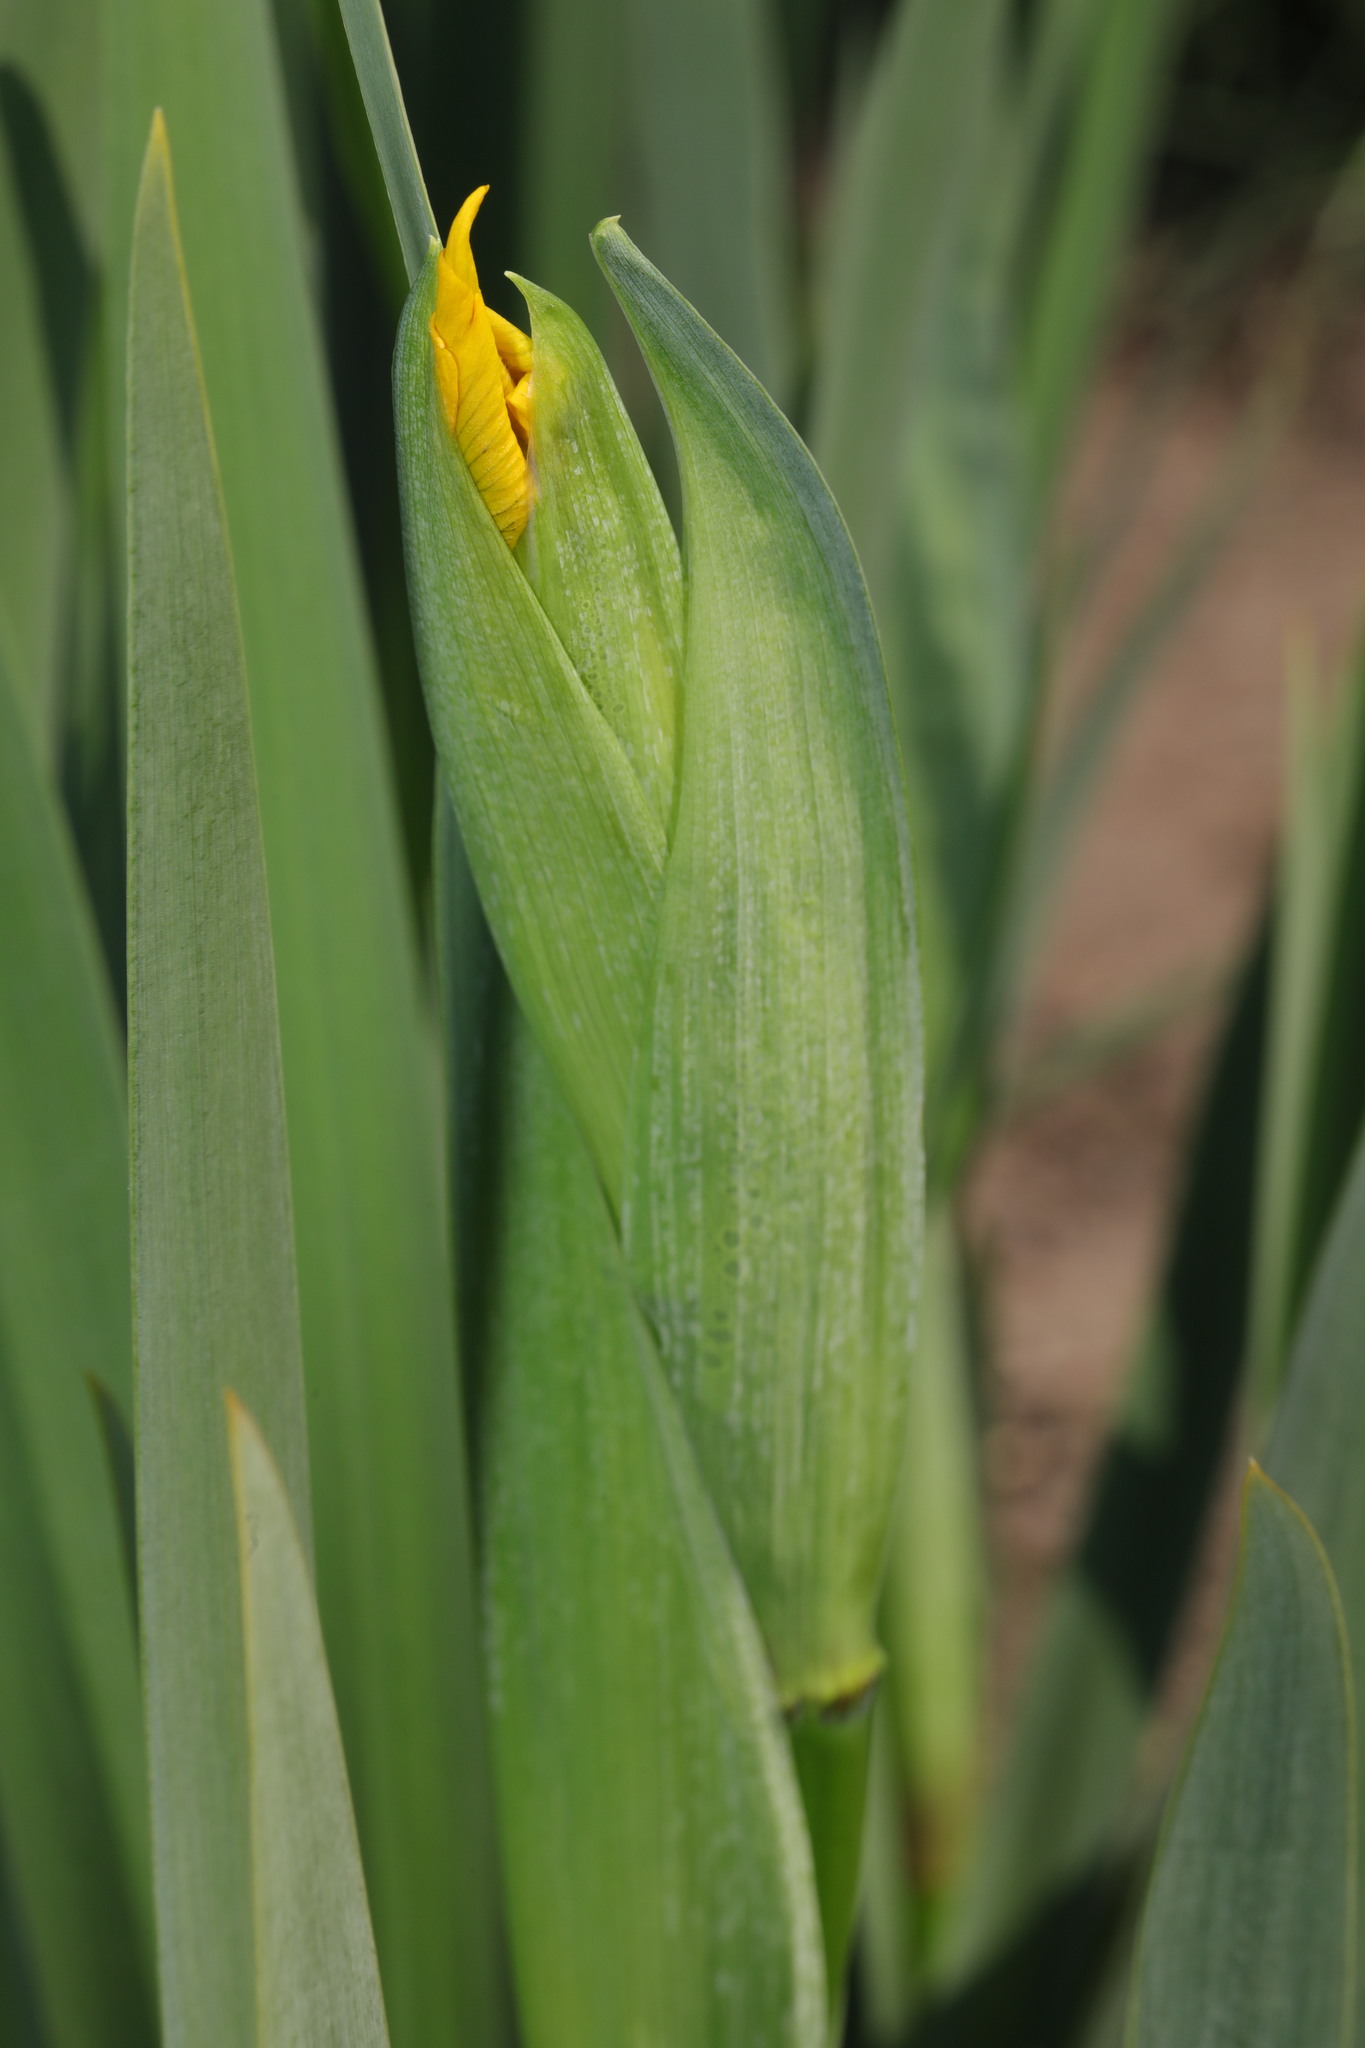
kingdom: Plantae
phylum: Tracheophyta
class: Liliopsida
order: Asparagales
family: Iridaceae
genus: Iris
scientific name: Iris pseudacorus
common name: Yellow flag
